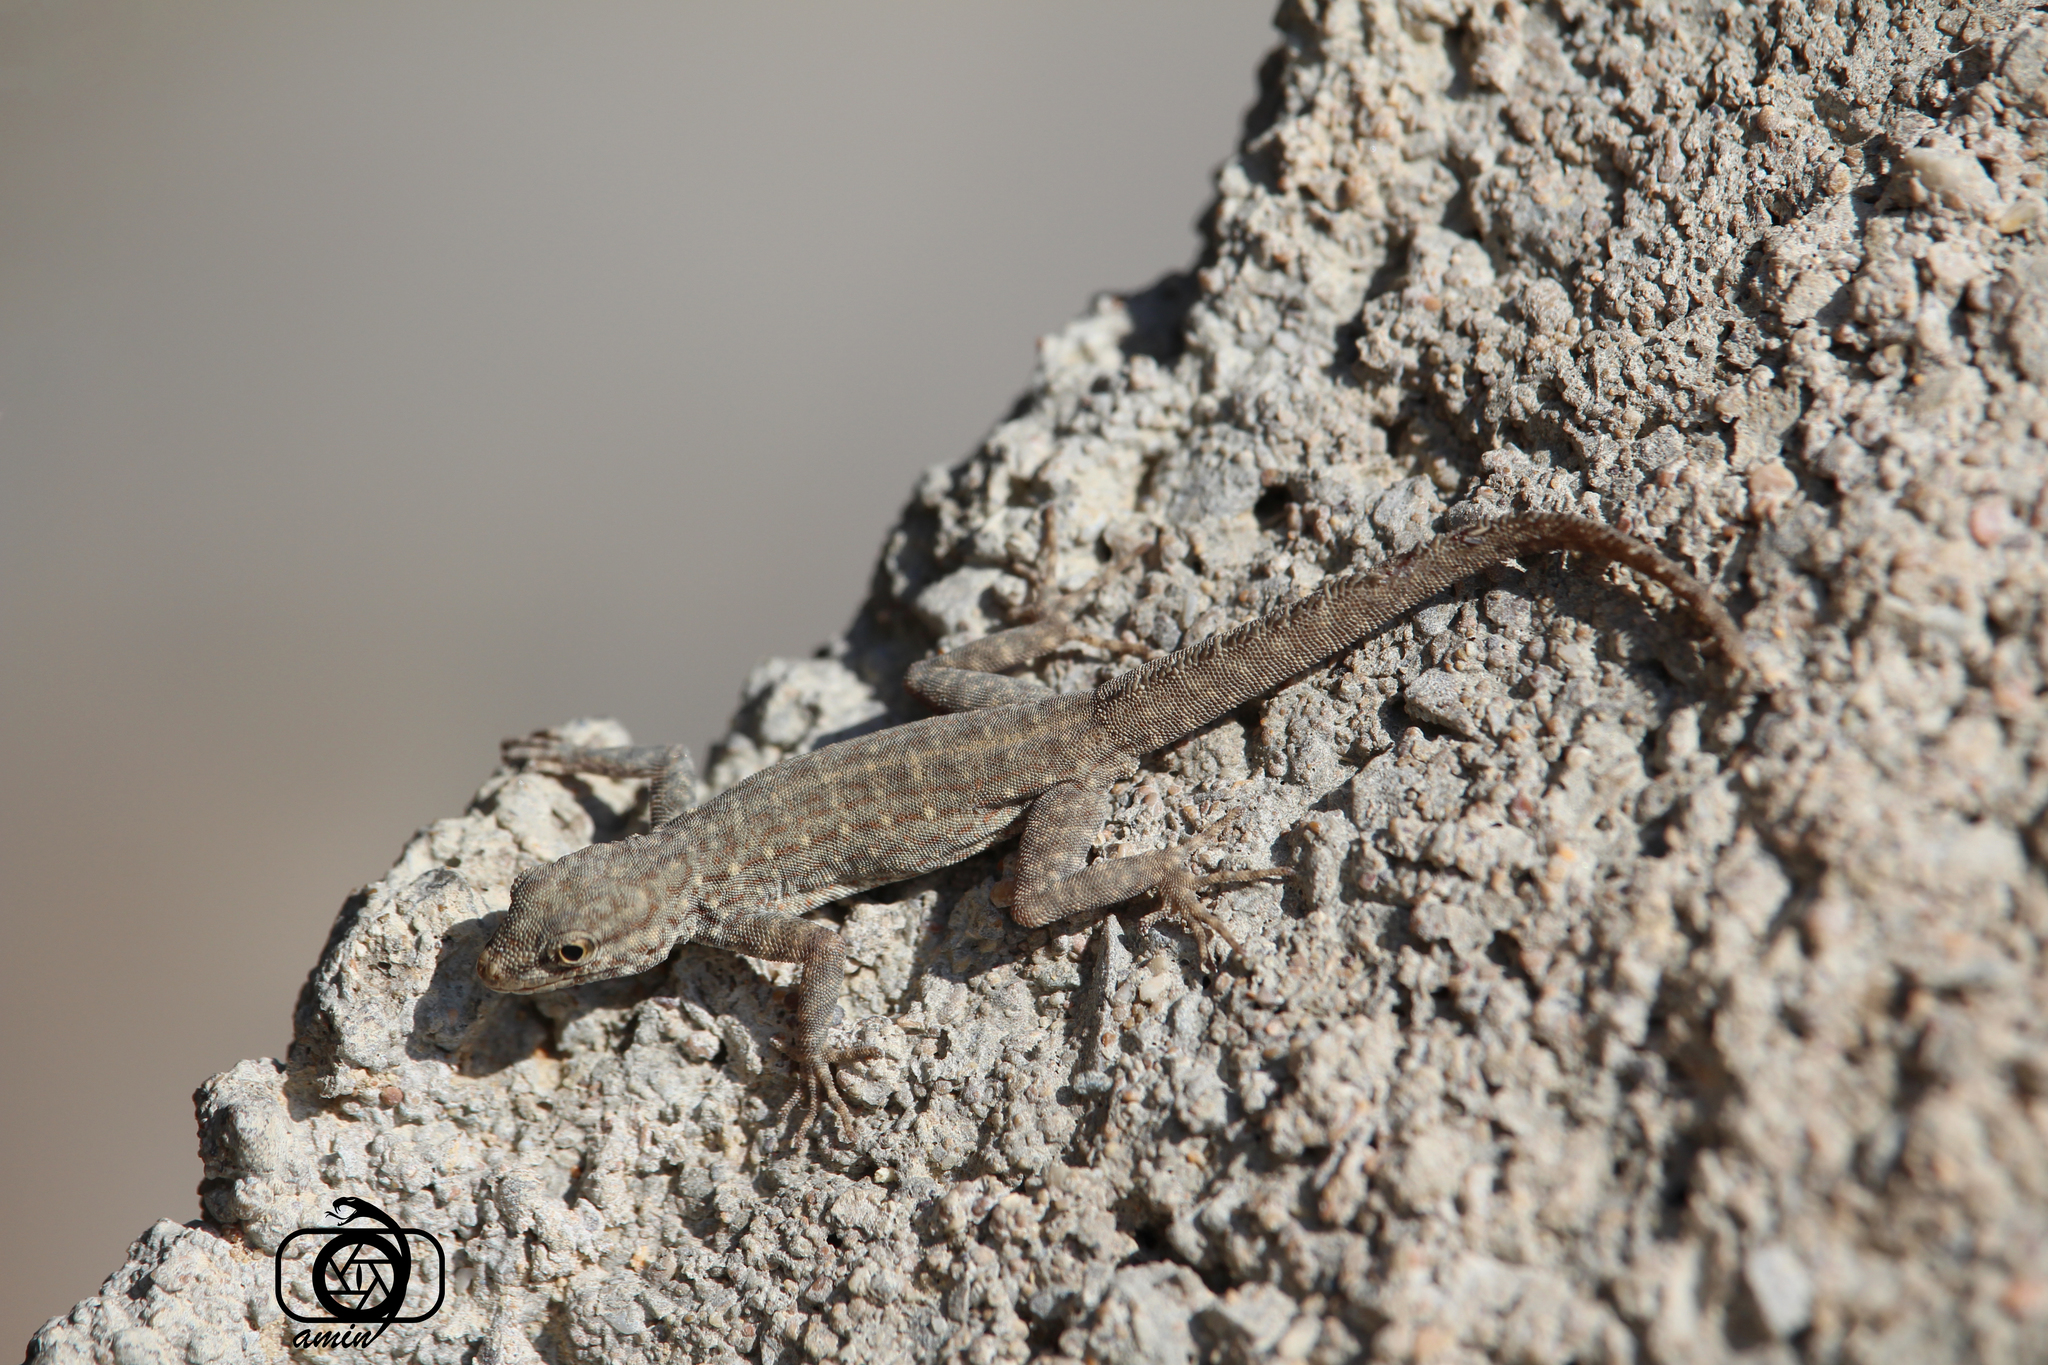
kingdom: Animalia
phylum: Chordata
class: Squamata
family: Sphaerodactylidae
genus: Pristurus
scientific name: Pristurus rupestris
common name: Blanford’s semaphore gecko
